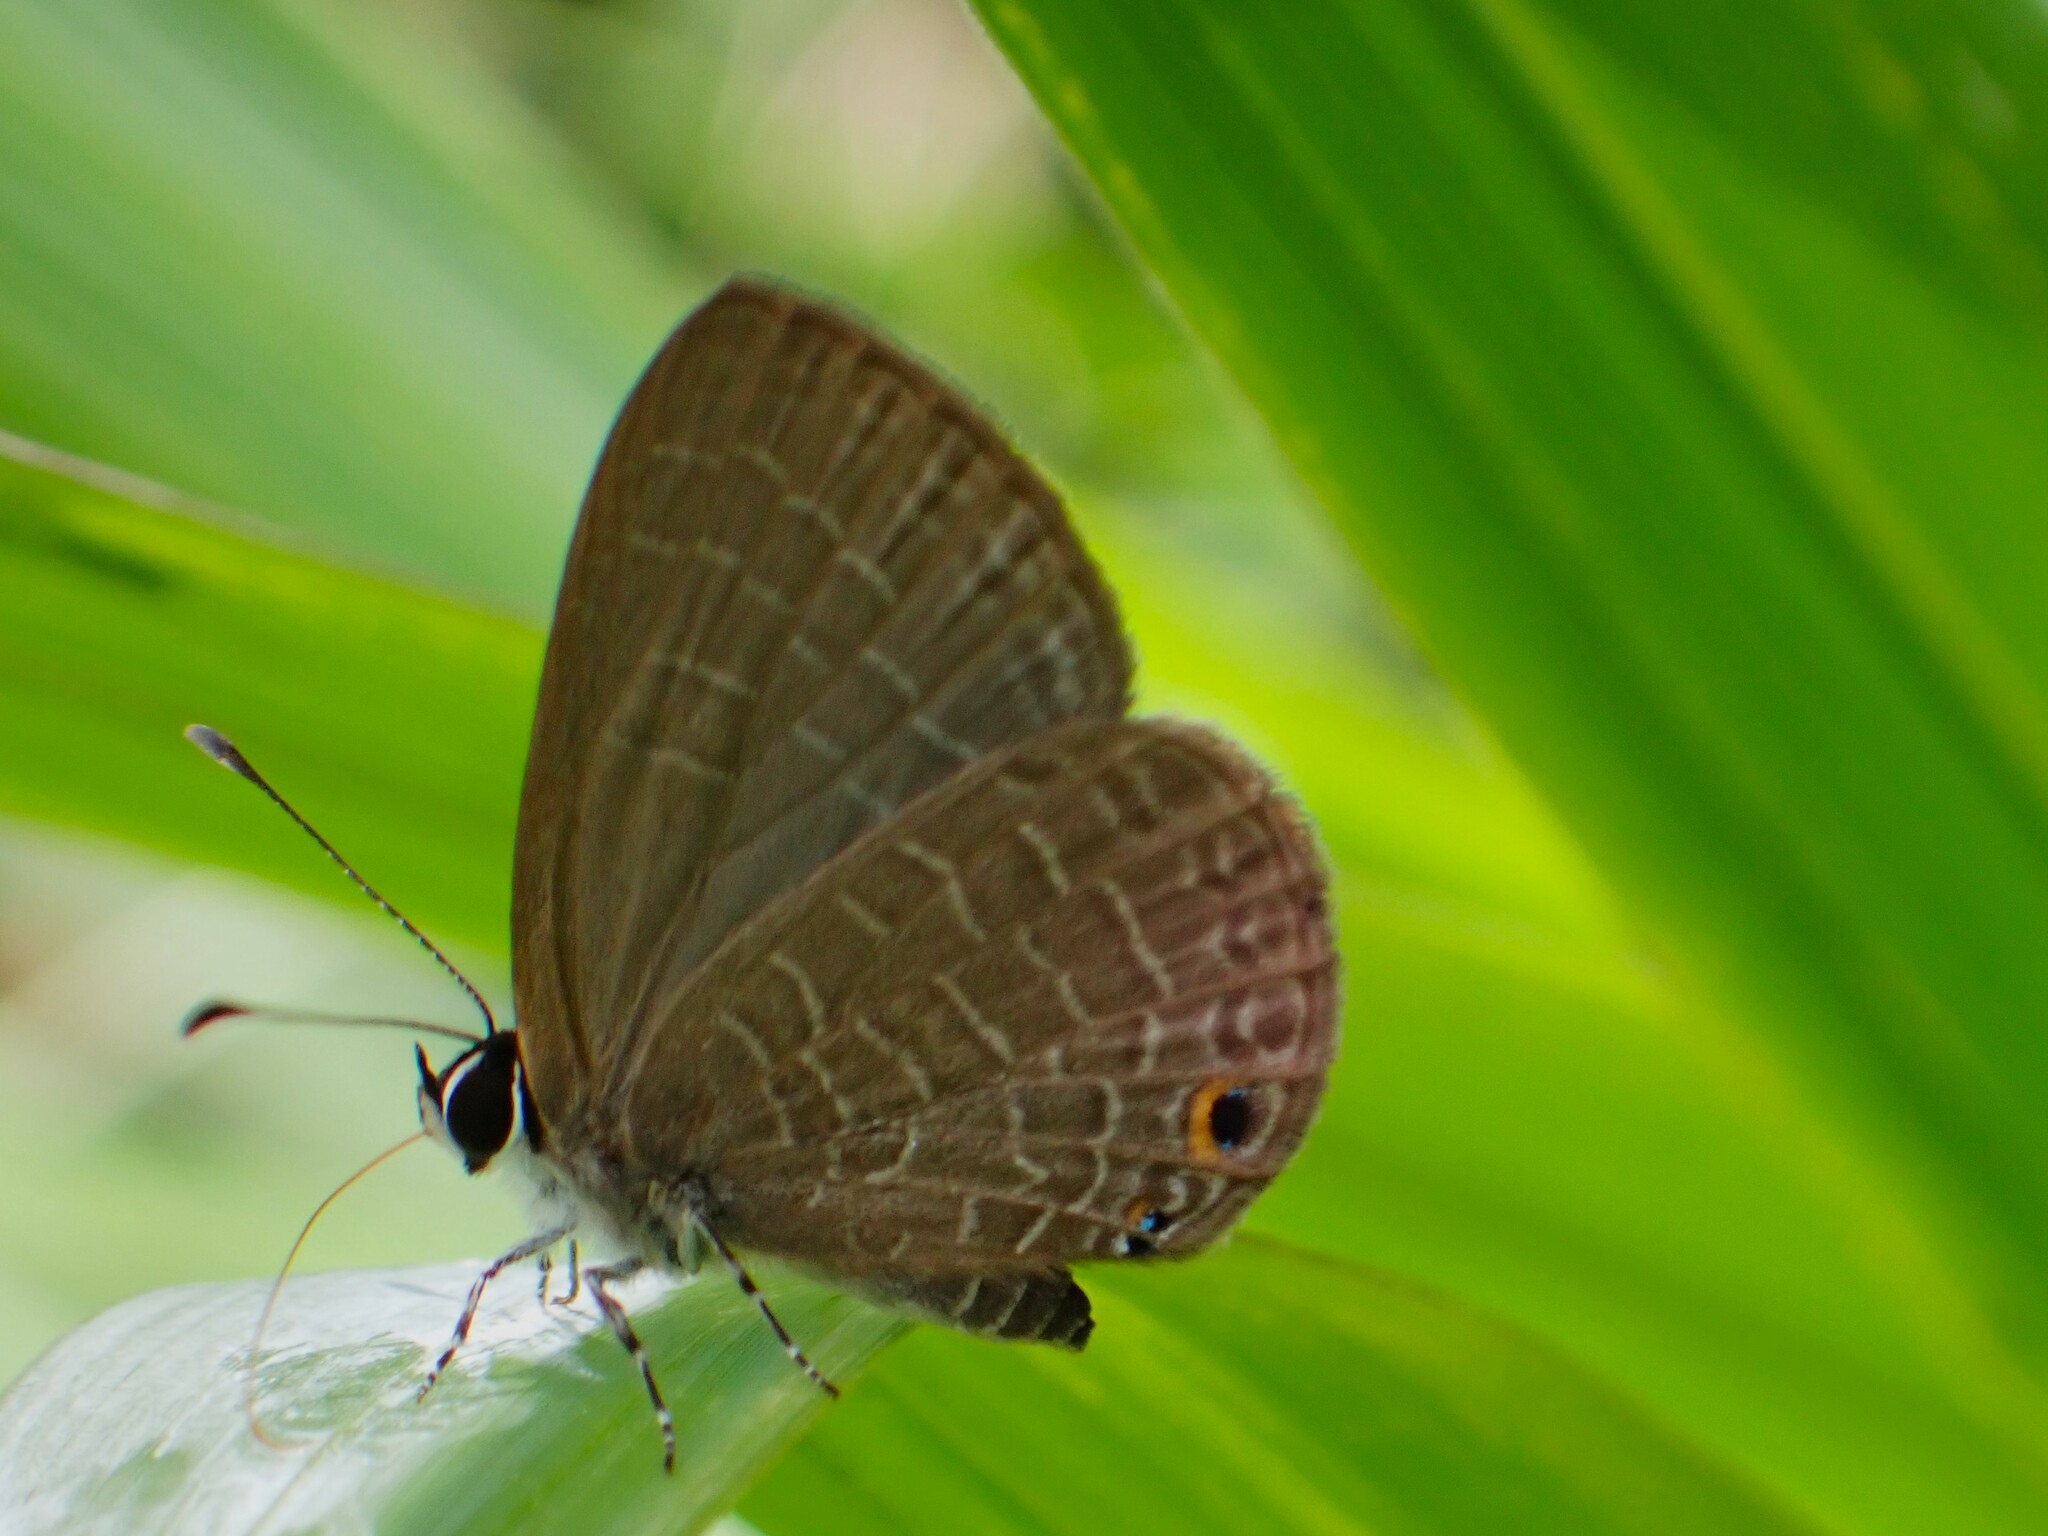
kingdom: Animalia
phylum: Arthropoda
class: Insecta
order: Lepidoptera
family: Lycaenidae
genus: Jamides
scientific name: Jamides walkeri
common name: Cook islands blue
